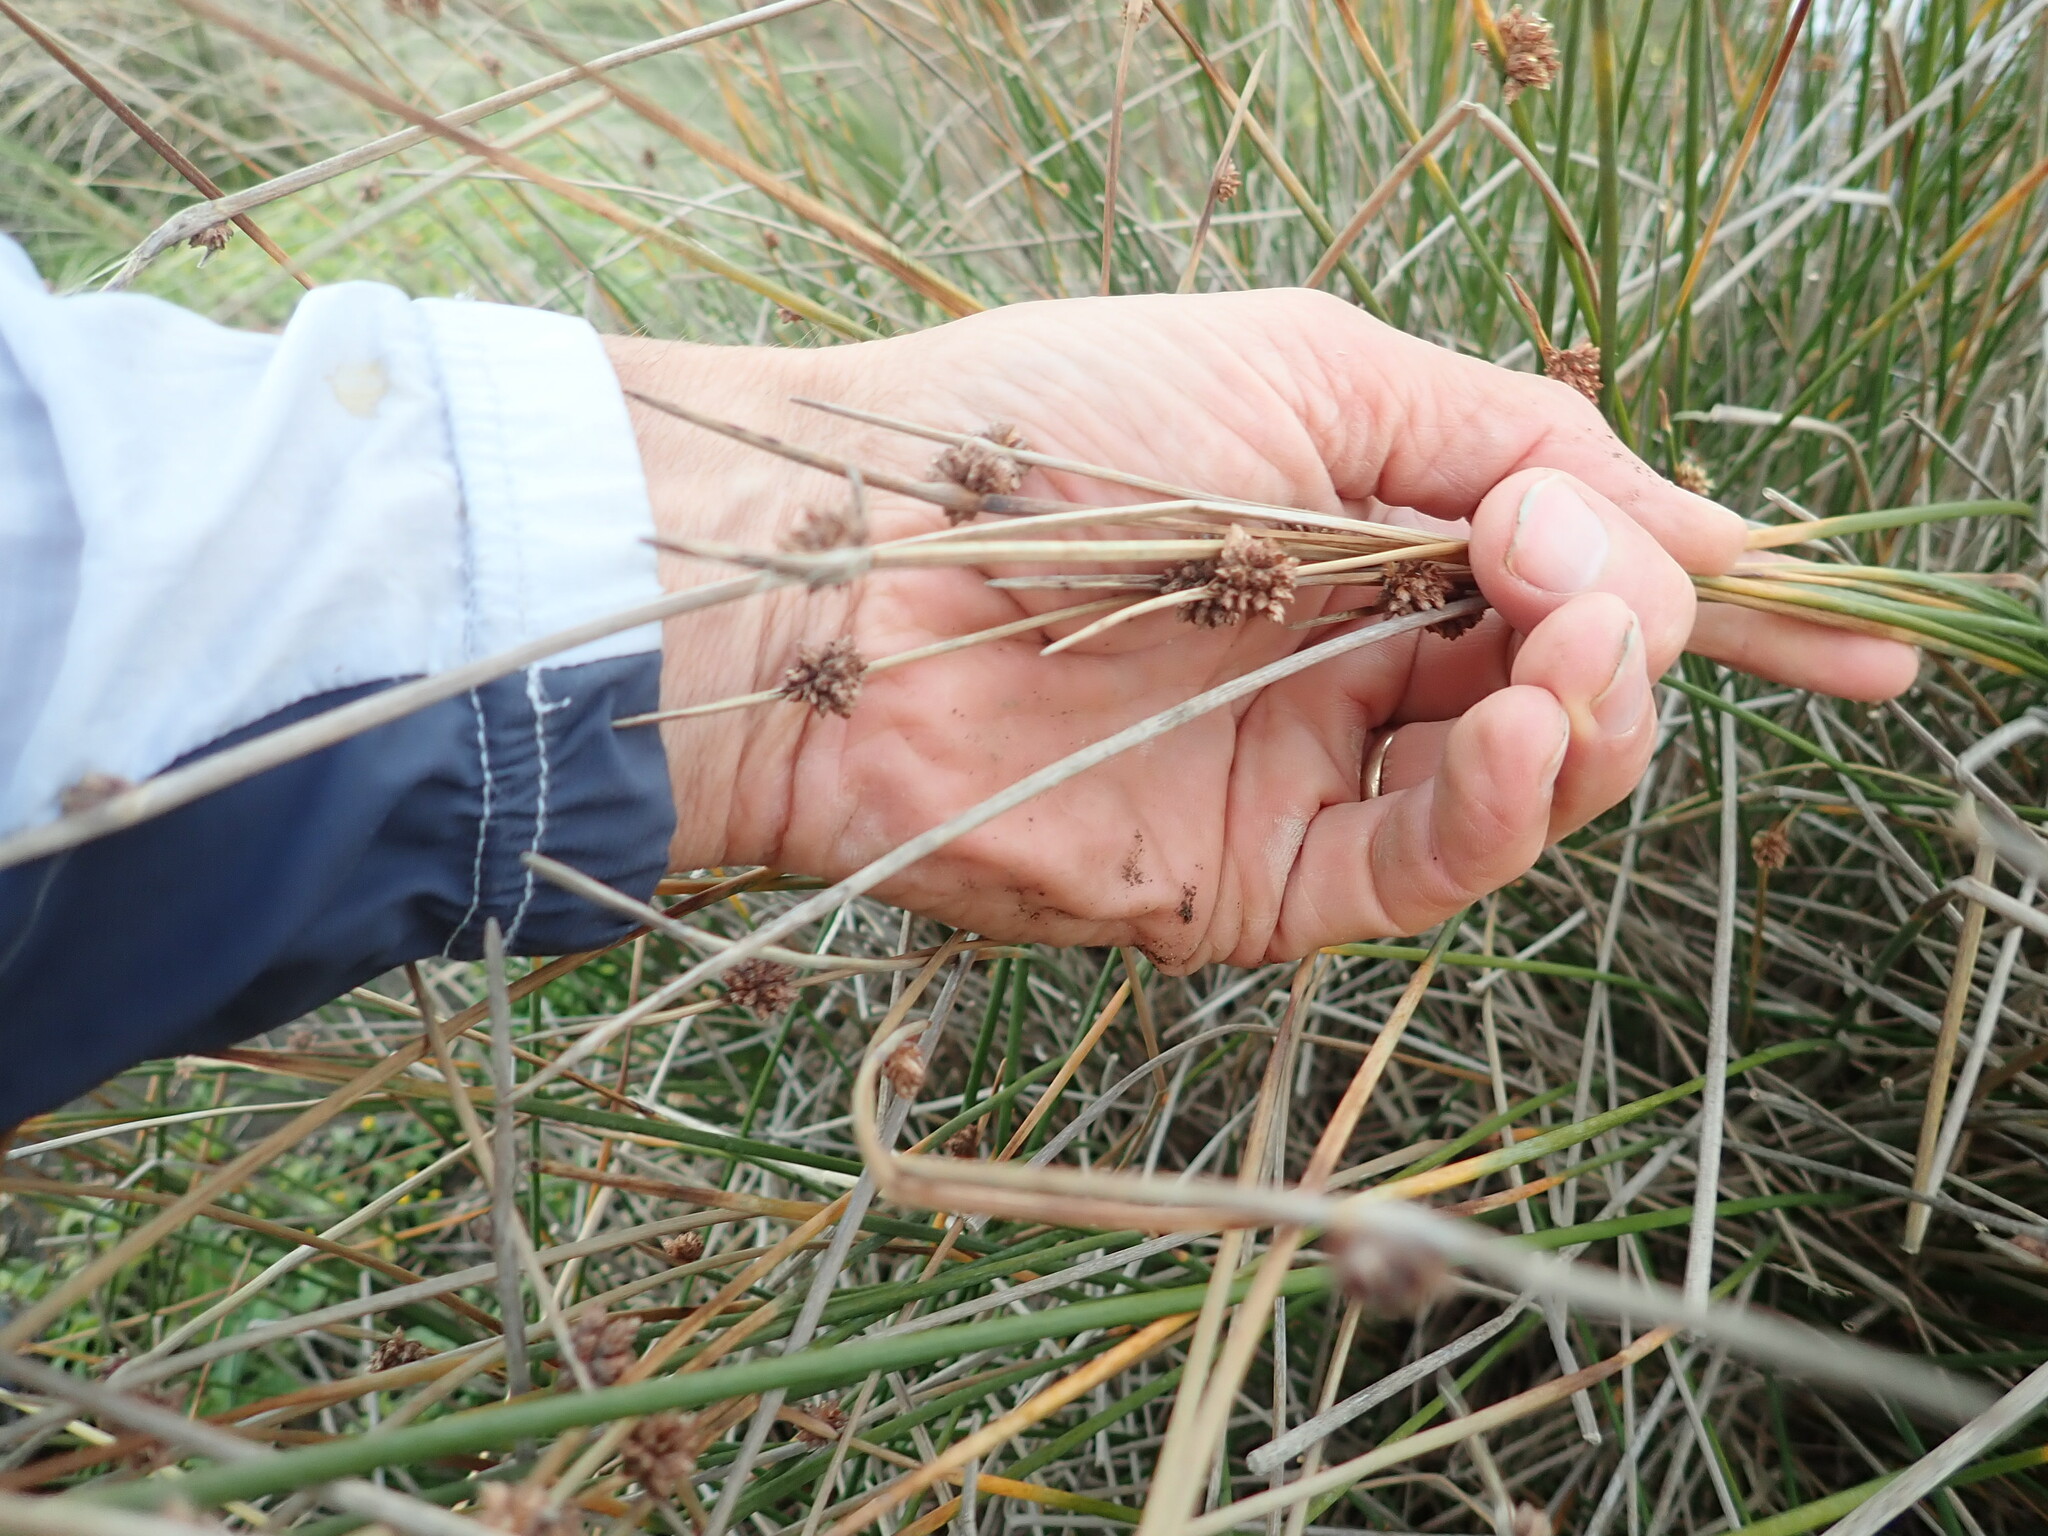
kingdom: Plantae
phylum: Tracheophyta
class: Liliopsida
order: Poales
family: Cyperaceae
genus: Ficinia
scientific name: Ficinia nodosa
